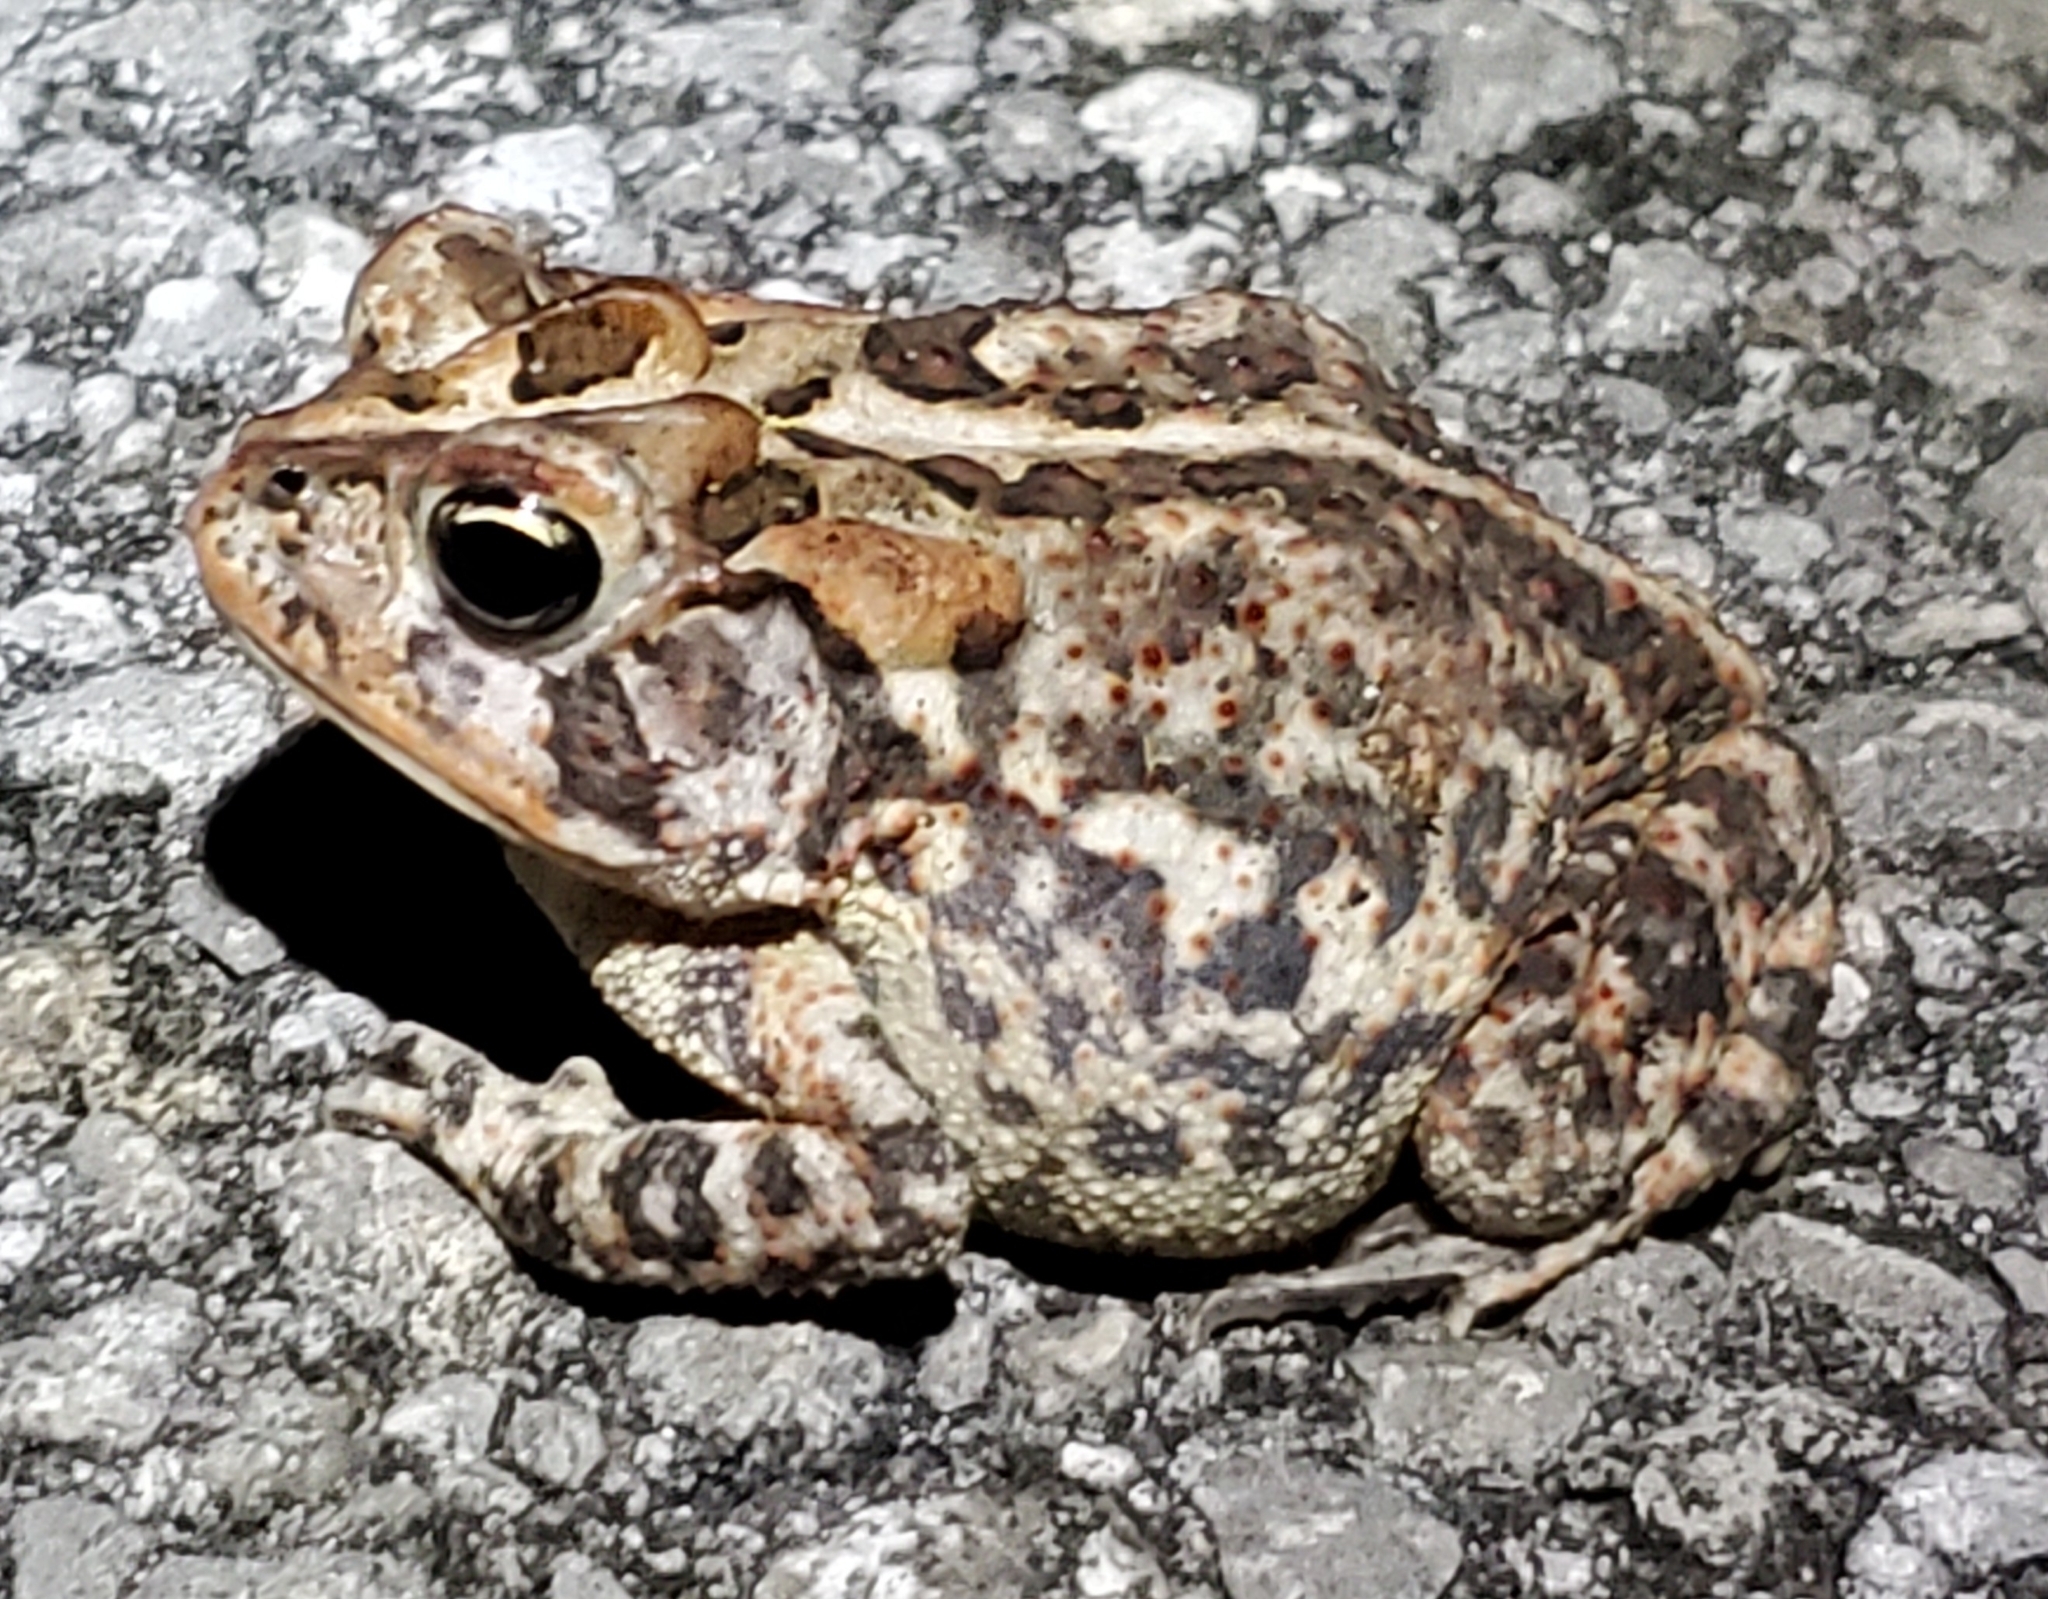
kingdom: Animalia
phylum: Chordata
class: Amphibia
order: Anura
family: Bufonidae
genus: Anaxyrus
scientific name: Anaxyrus terrestris
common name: Southern toad
